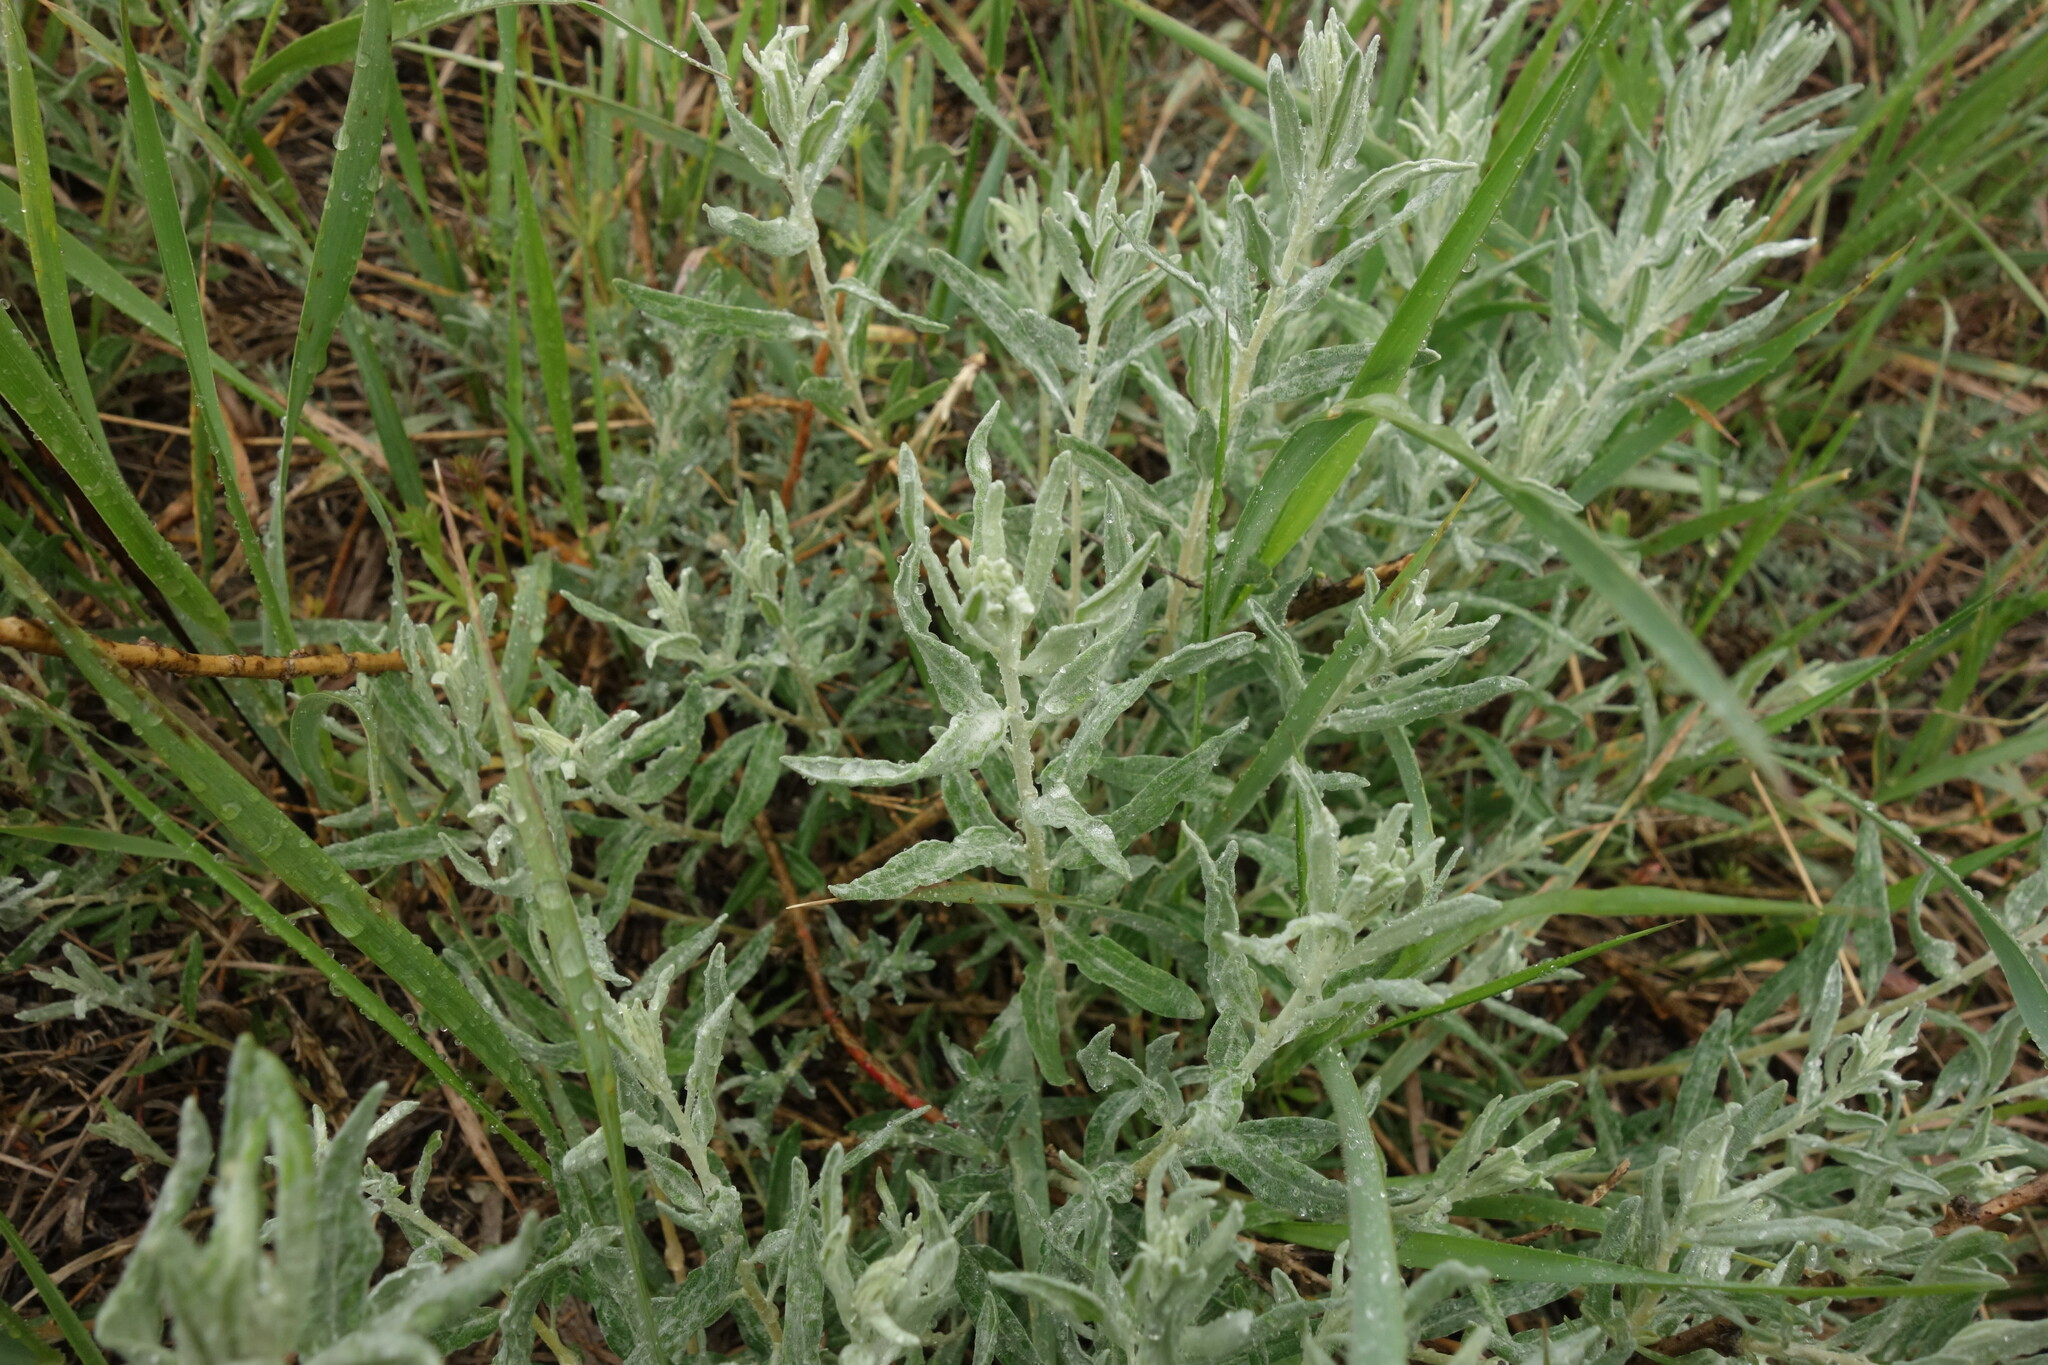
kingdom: Plantae
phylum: Tracheophyta
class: Magnoliopsida
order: Caryophyllales
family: Amaranthaceae
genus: Krascheninnikovia
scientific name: Krascheninnikovia ceratoides
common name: Pamirian winterfat
